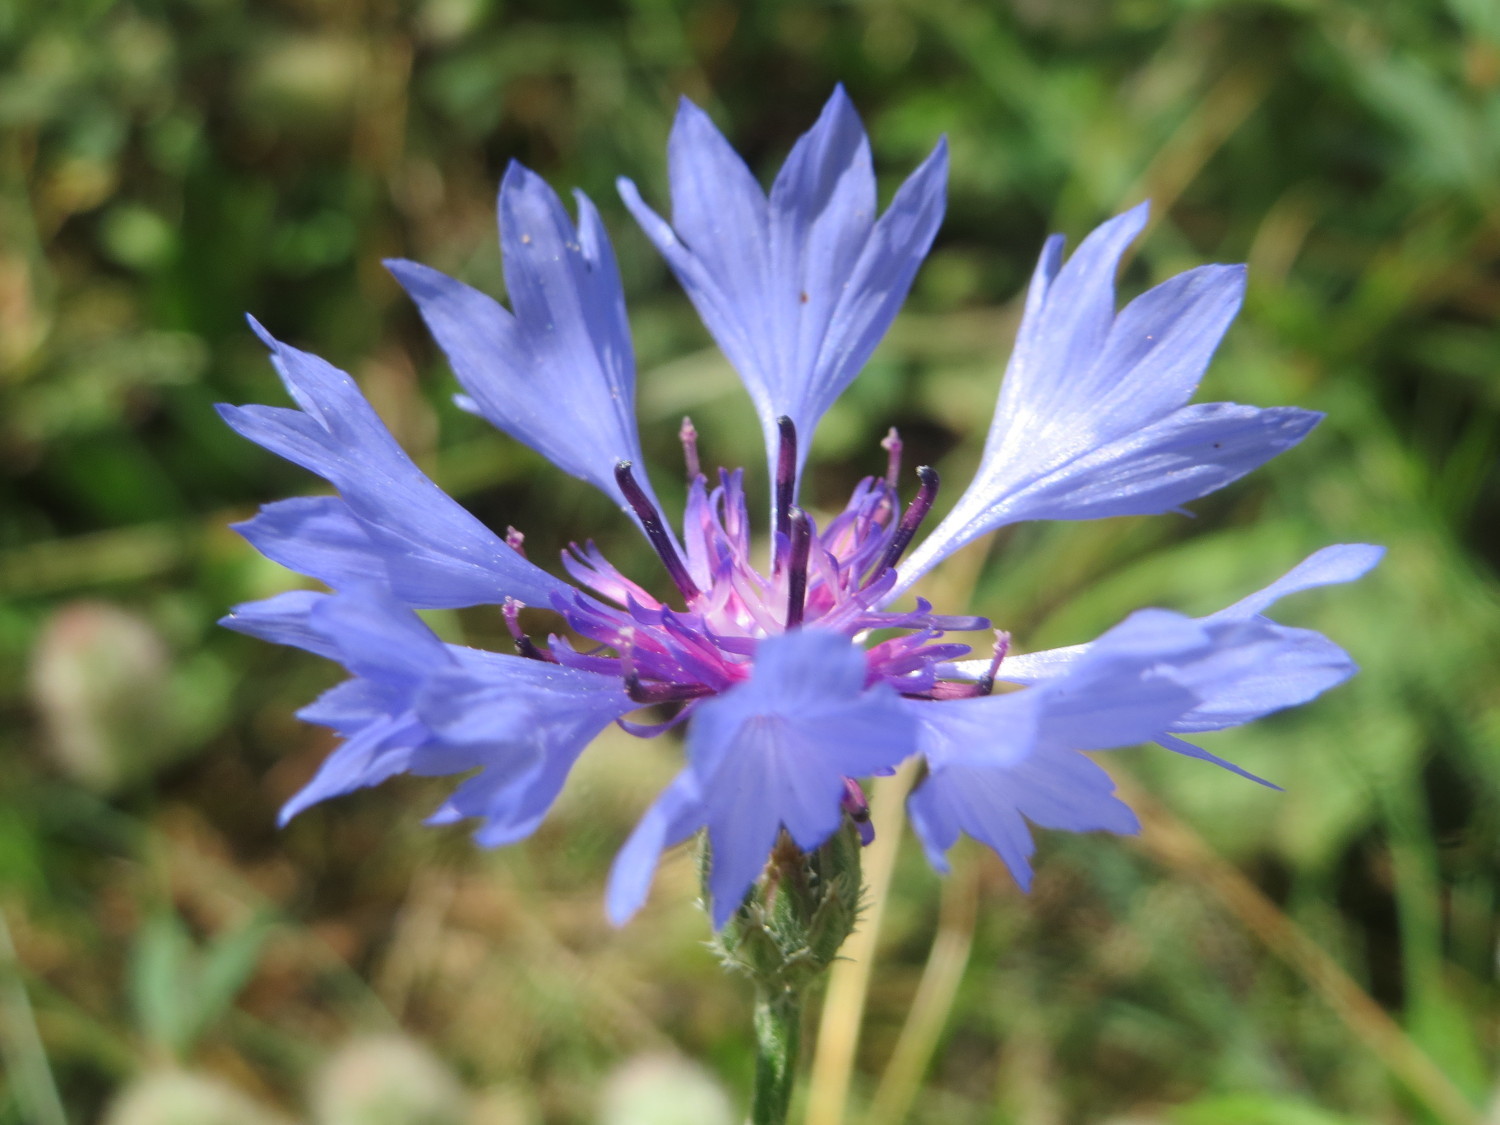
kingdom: Plantae
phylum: Tracheophyta
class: Magnoliopsida
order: Asterales
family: Asteraceae
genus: Centaurea
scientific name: Centaurea cyanus
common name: Cornflower
